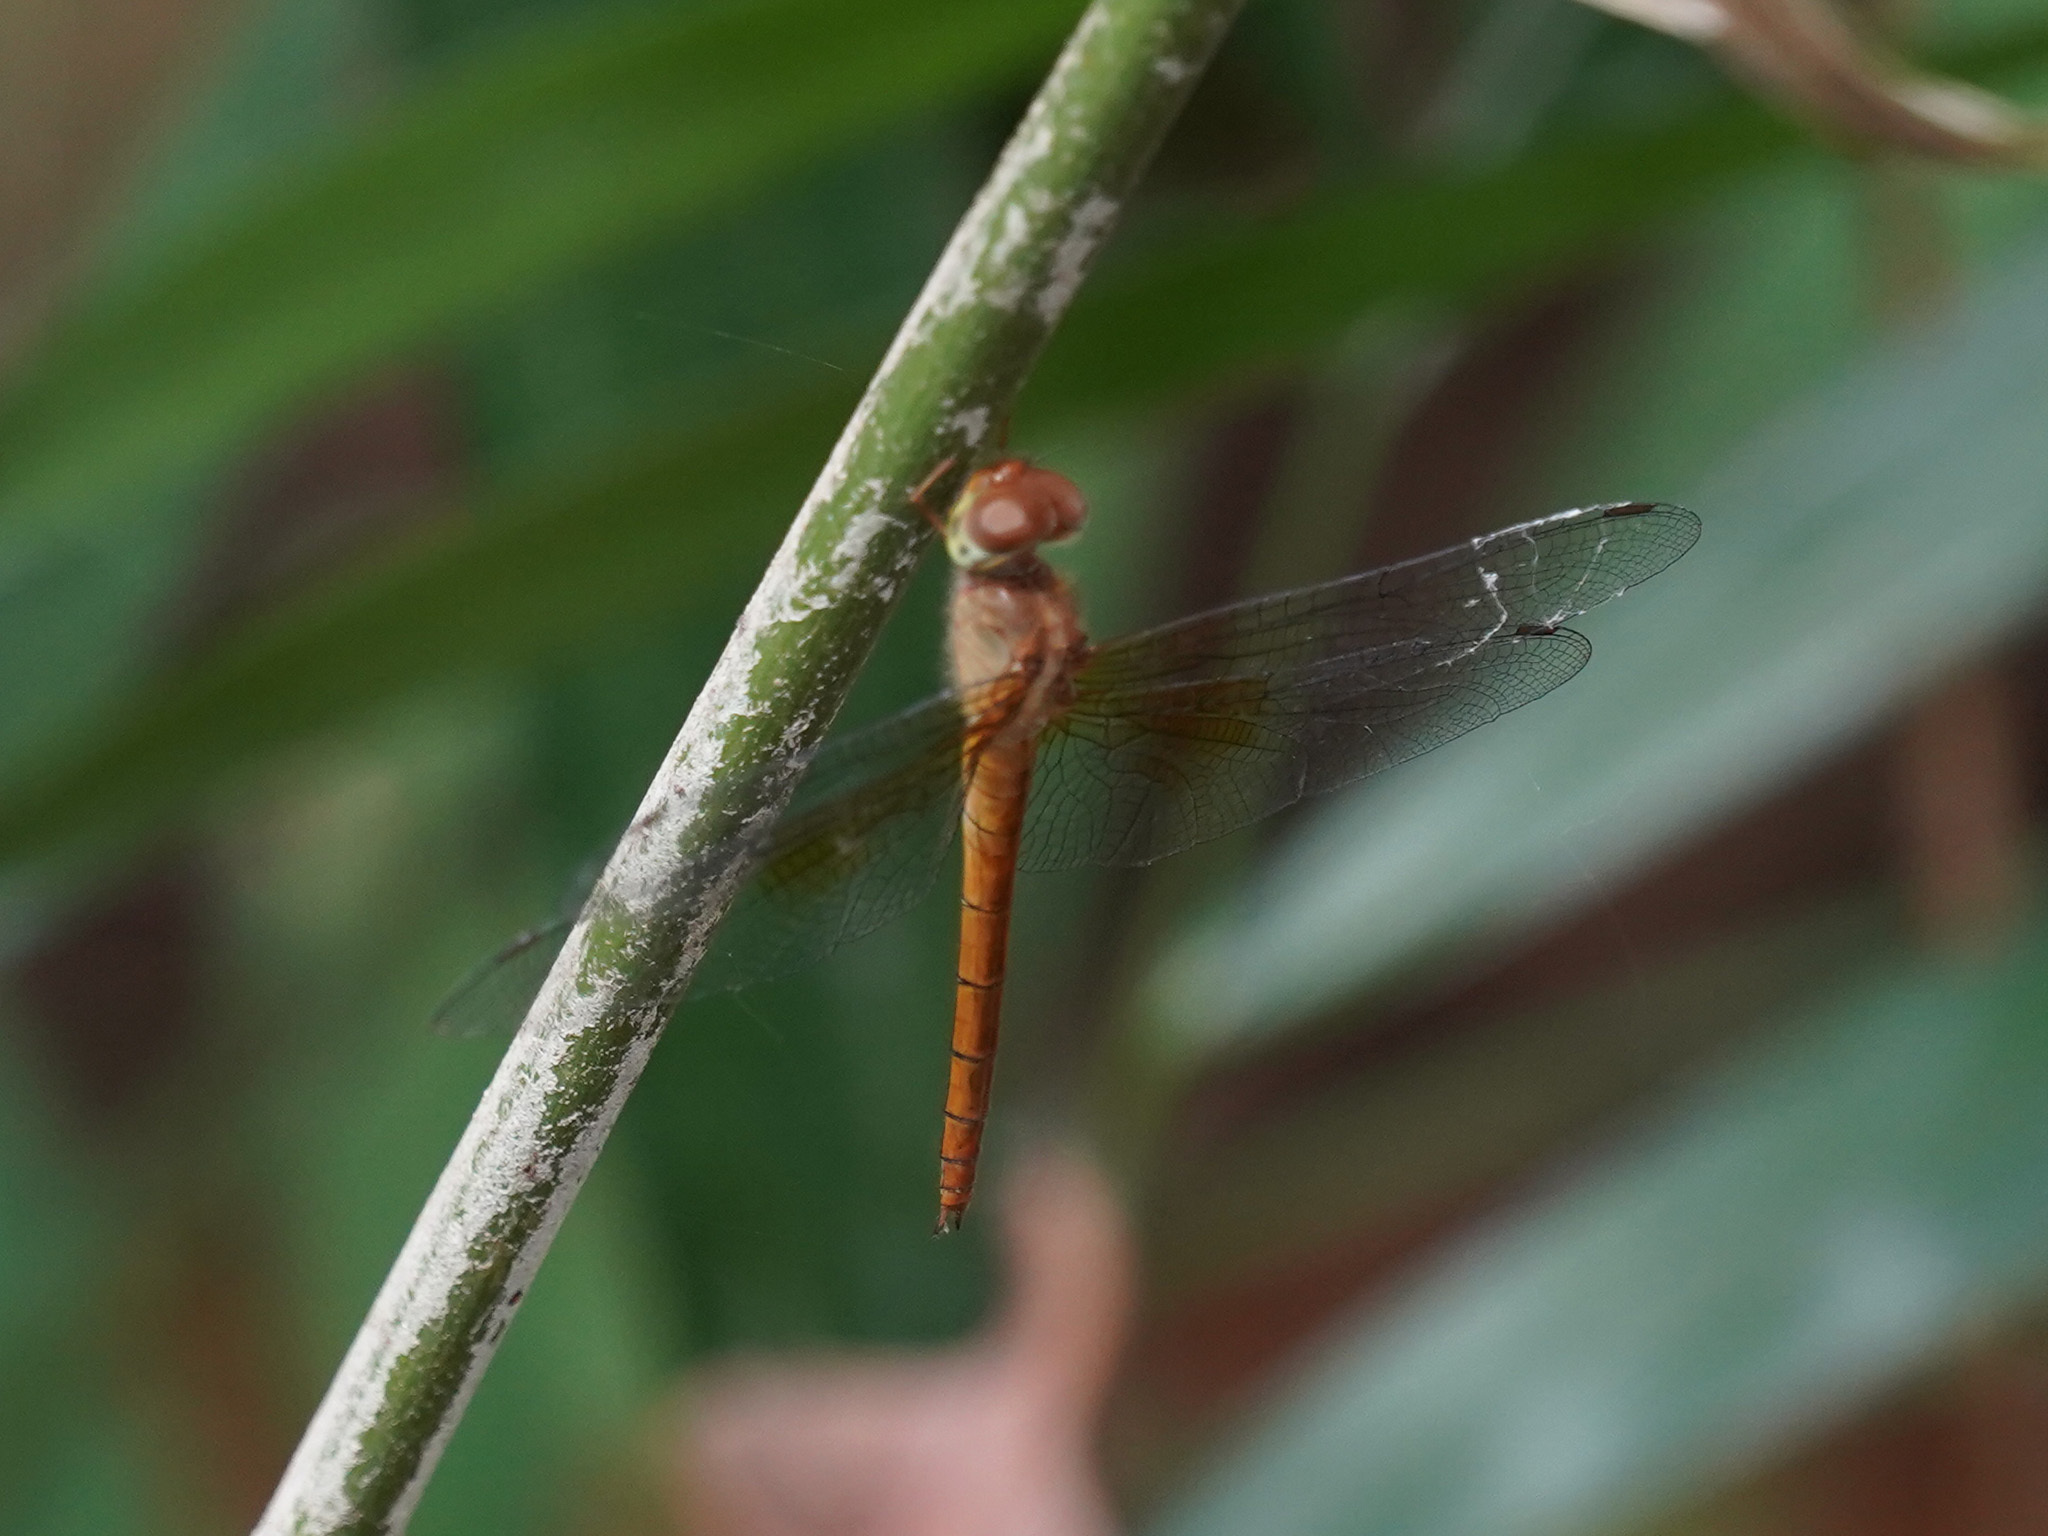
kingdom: Animalia
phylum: Arthropoda
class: Insecta
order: Odonata
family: Libellulidae
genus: Tholymis
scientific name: Tholymis tillarga
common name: Coral-tailed cloud wing
